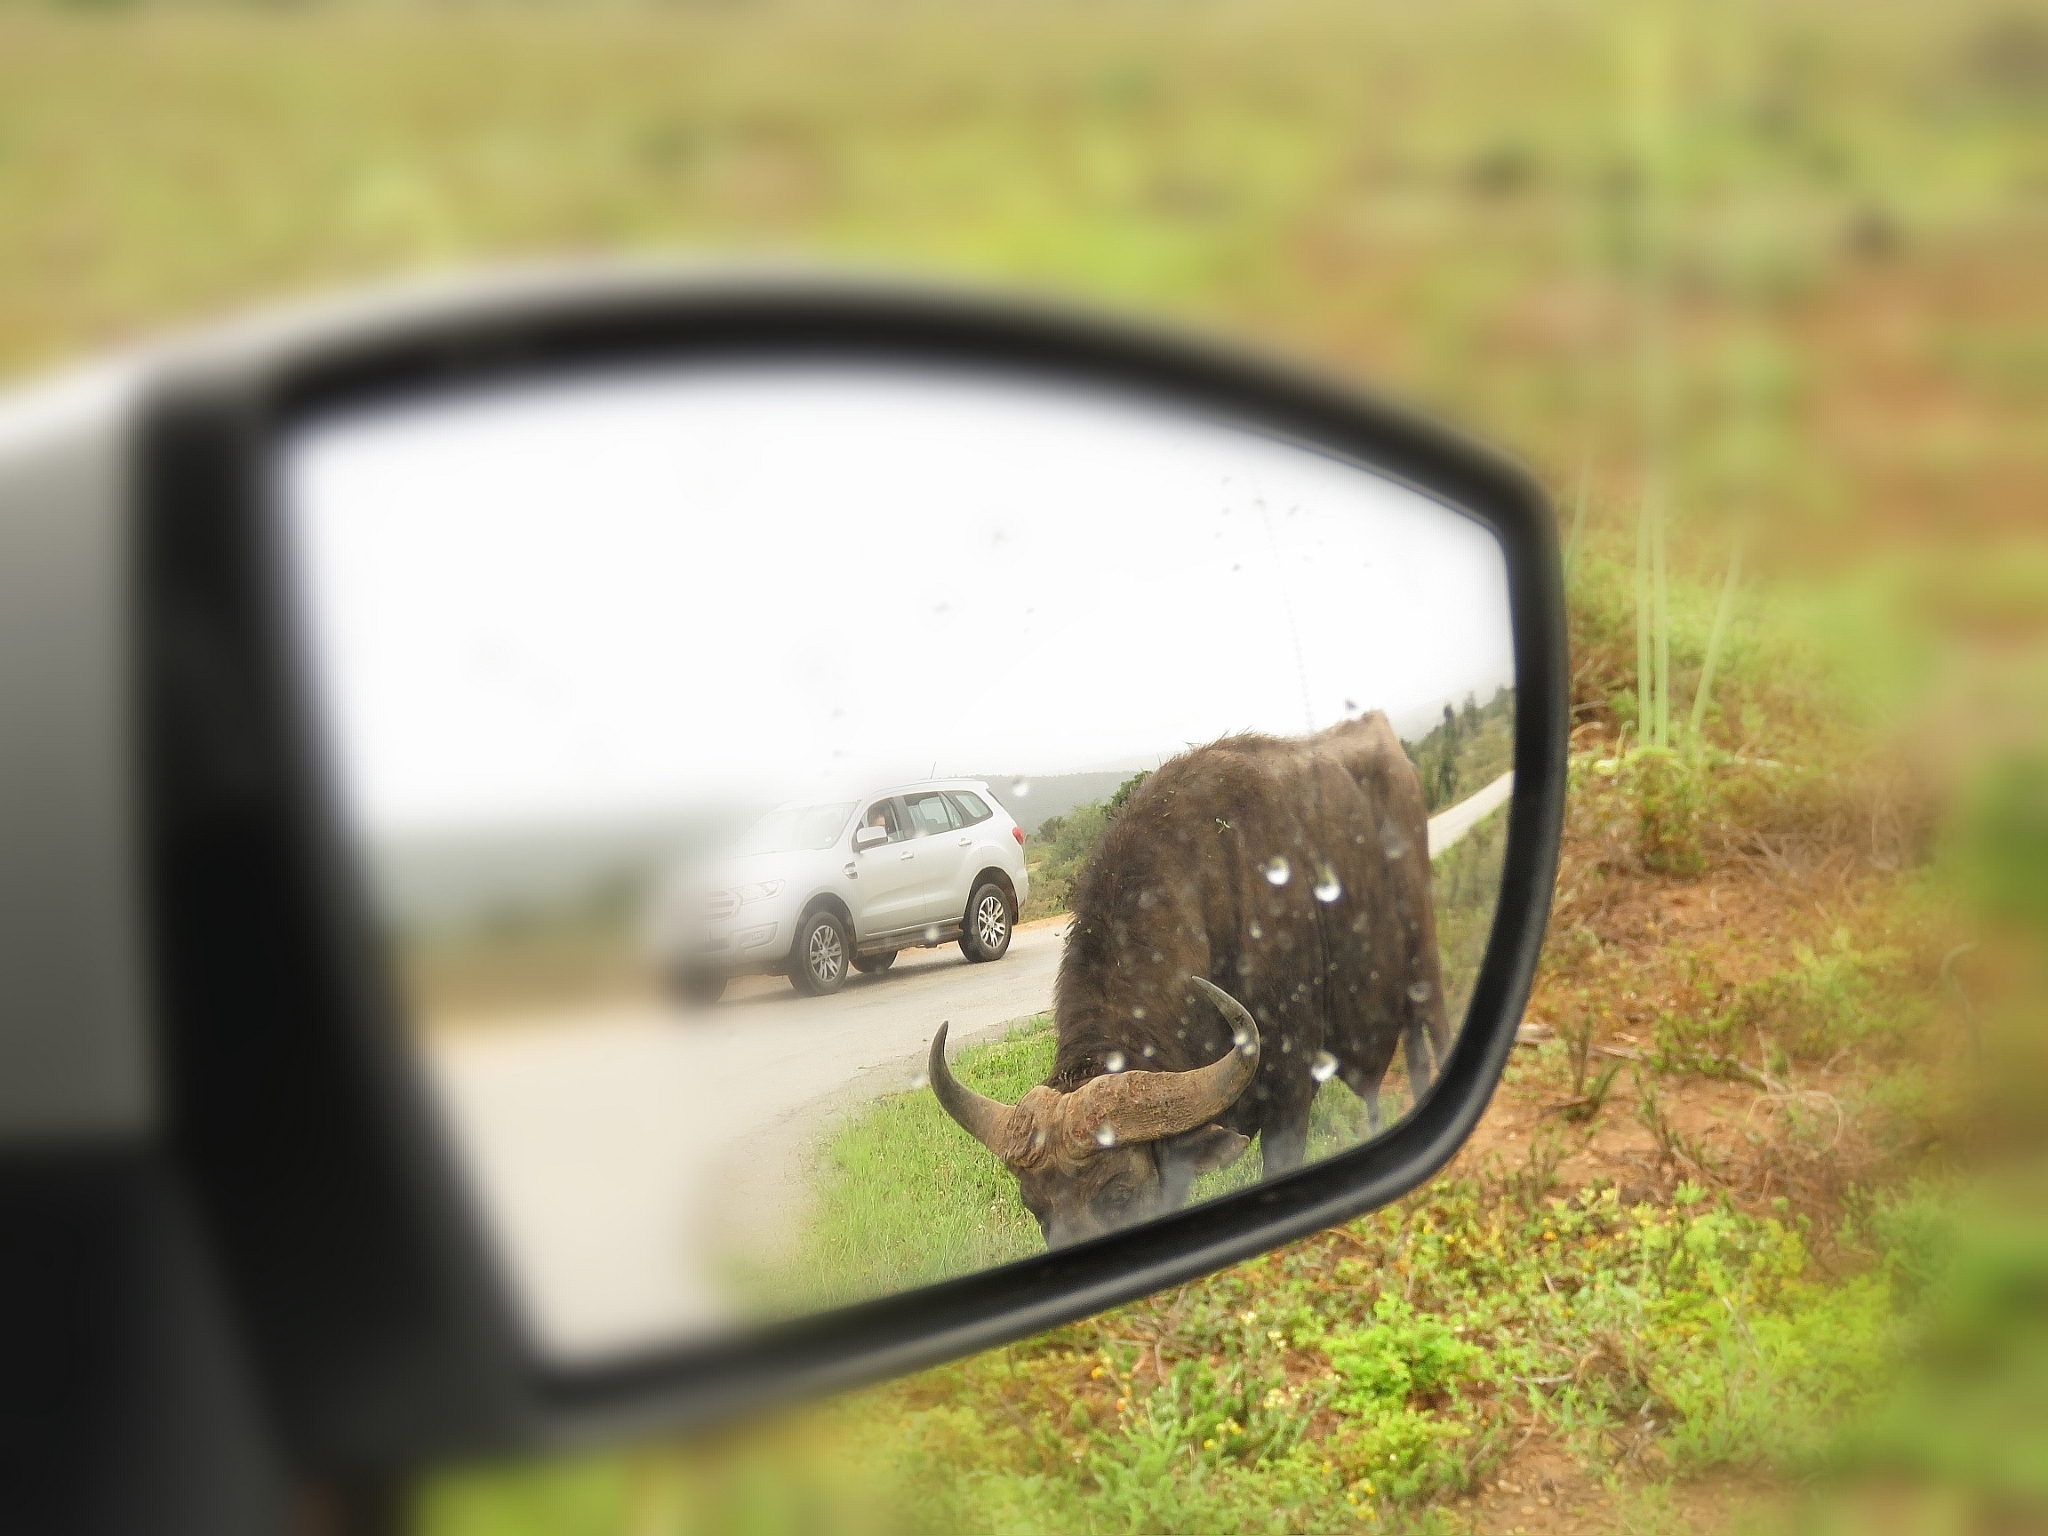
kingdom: Animalia
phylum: Chordata
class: Mammalia
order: Artiodactyla
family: Bovidae
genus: Syncerus
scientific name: Syncerus caffer
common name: African buffalo
